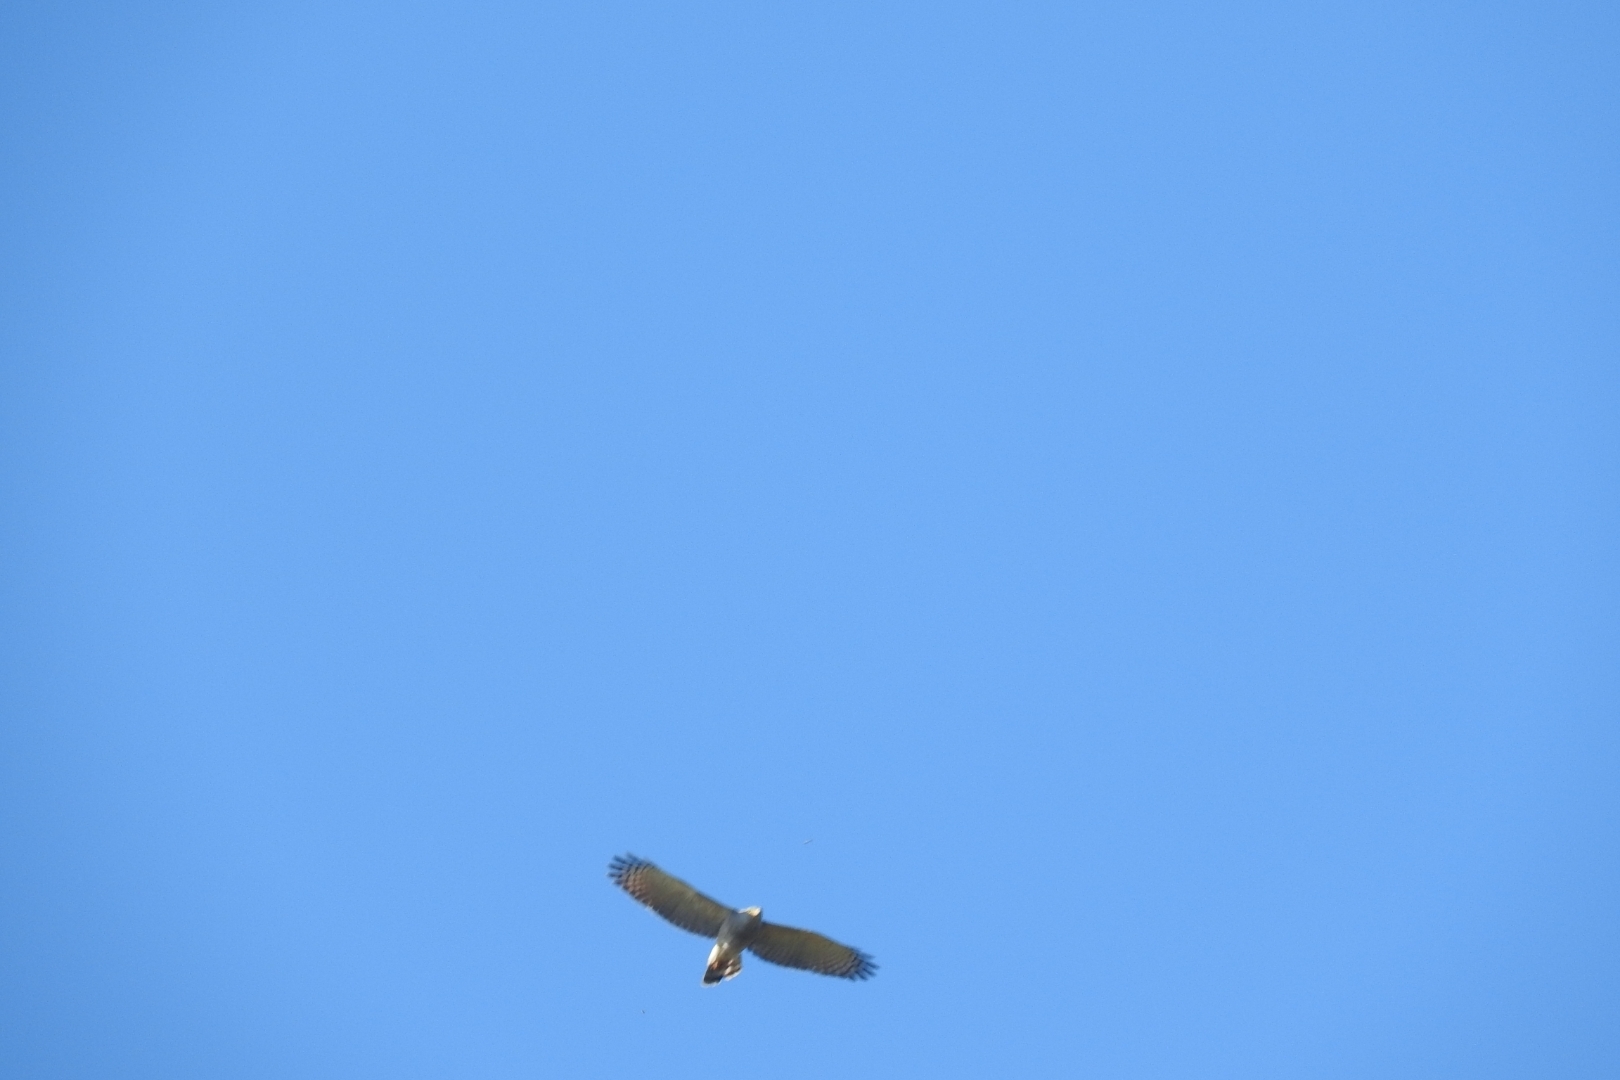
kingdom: Animalia
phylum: Chordata
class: Aves
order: Accipitriformes
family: Accipitridae
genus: Rupornis
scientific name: Rupornis magnirostris
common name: Roadside hawk
